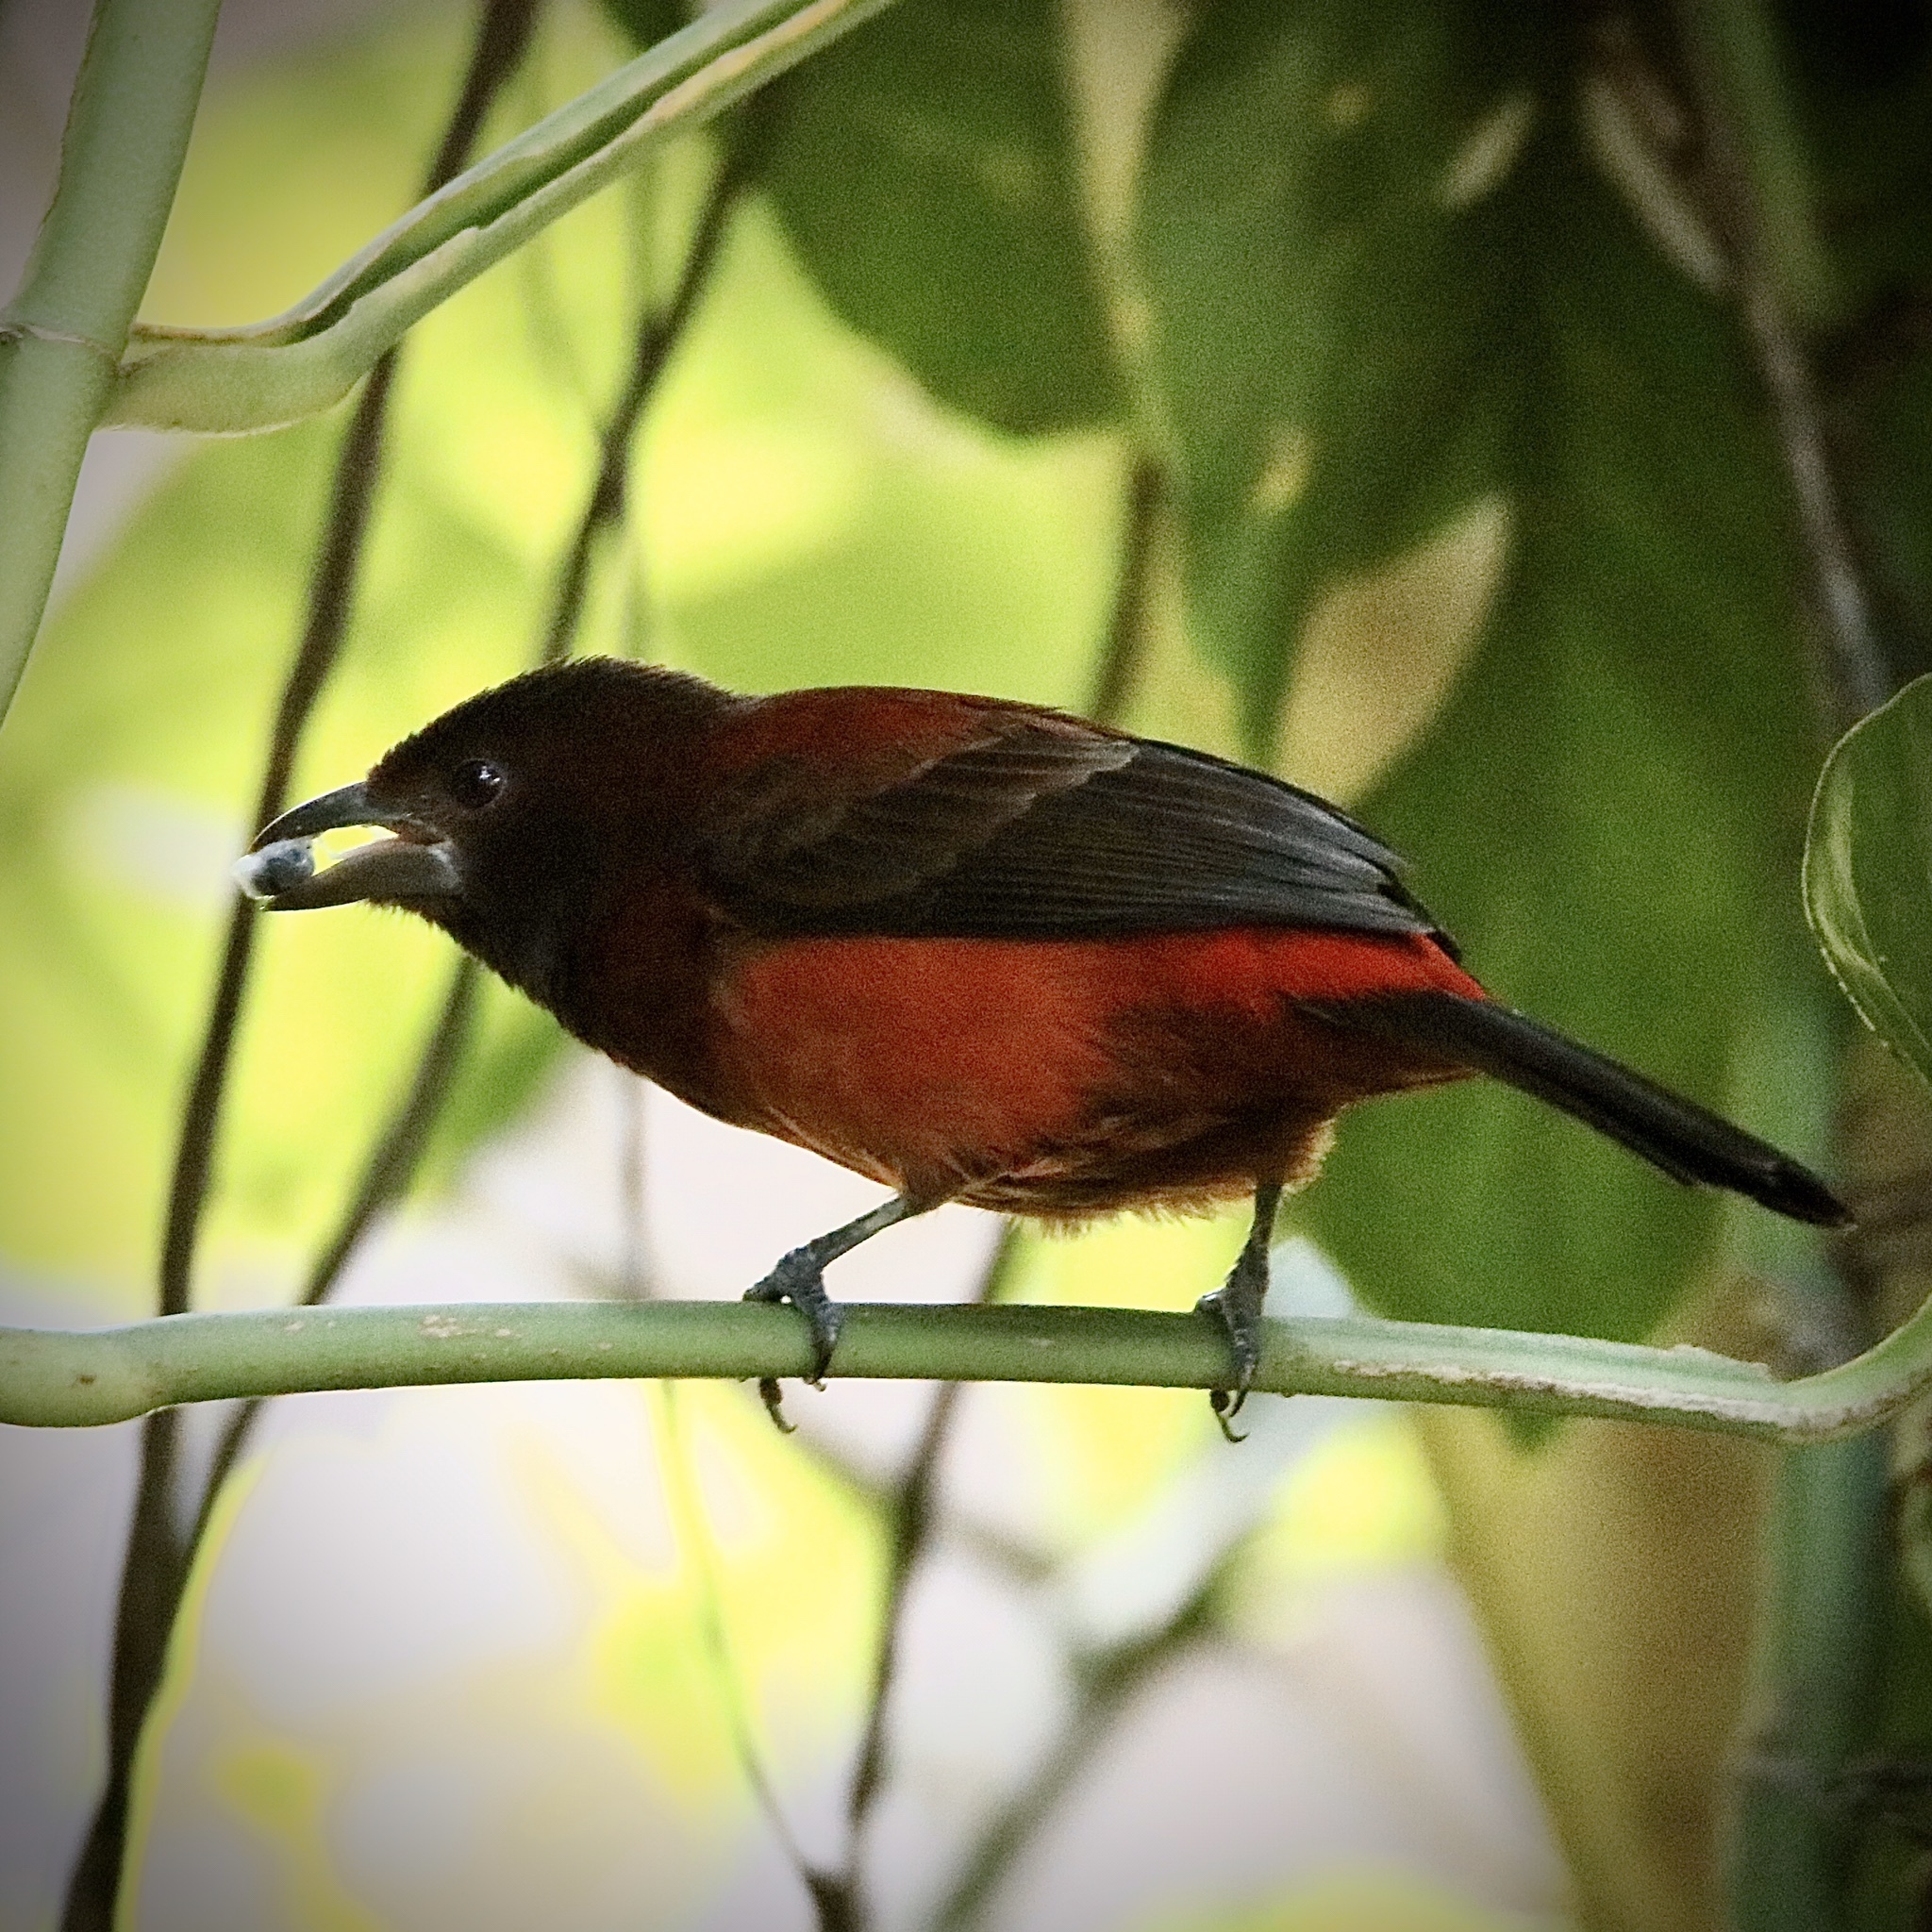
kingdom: Animalia
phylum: Chordata
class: Aves
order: Passeriformes
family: Thraupidae
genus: Ramphocelus
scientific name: Ramphocelus dimidiatus
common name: Crimson-backed tanager
